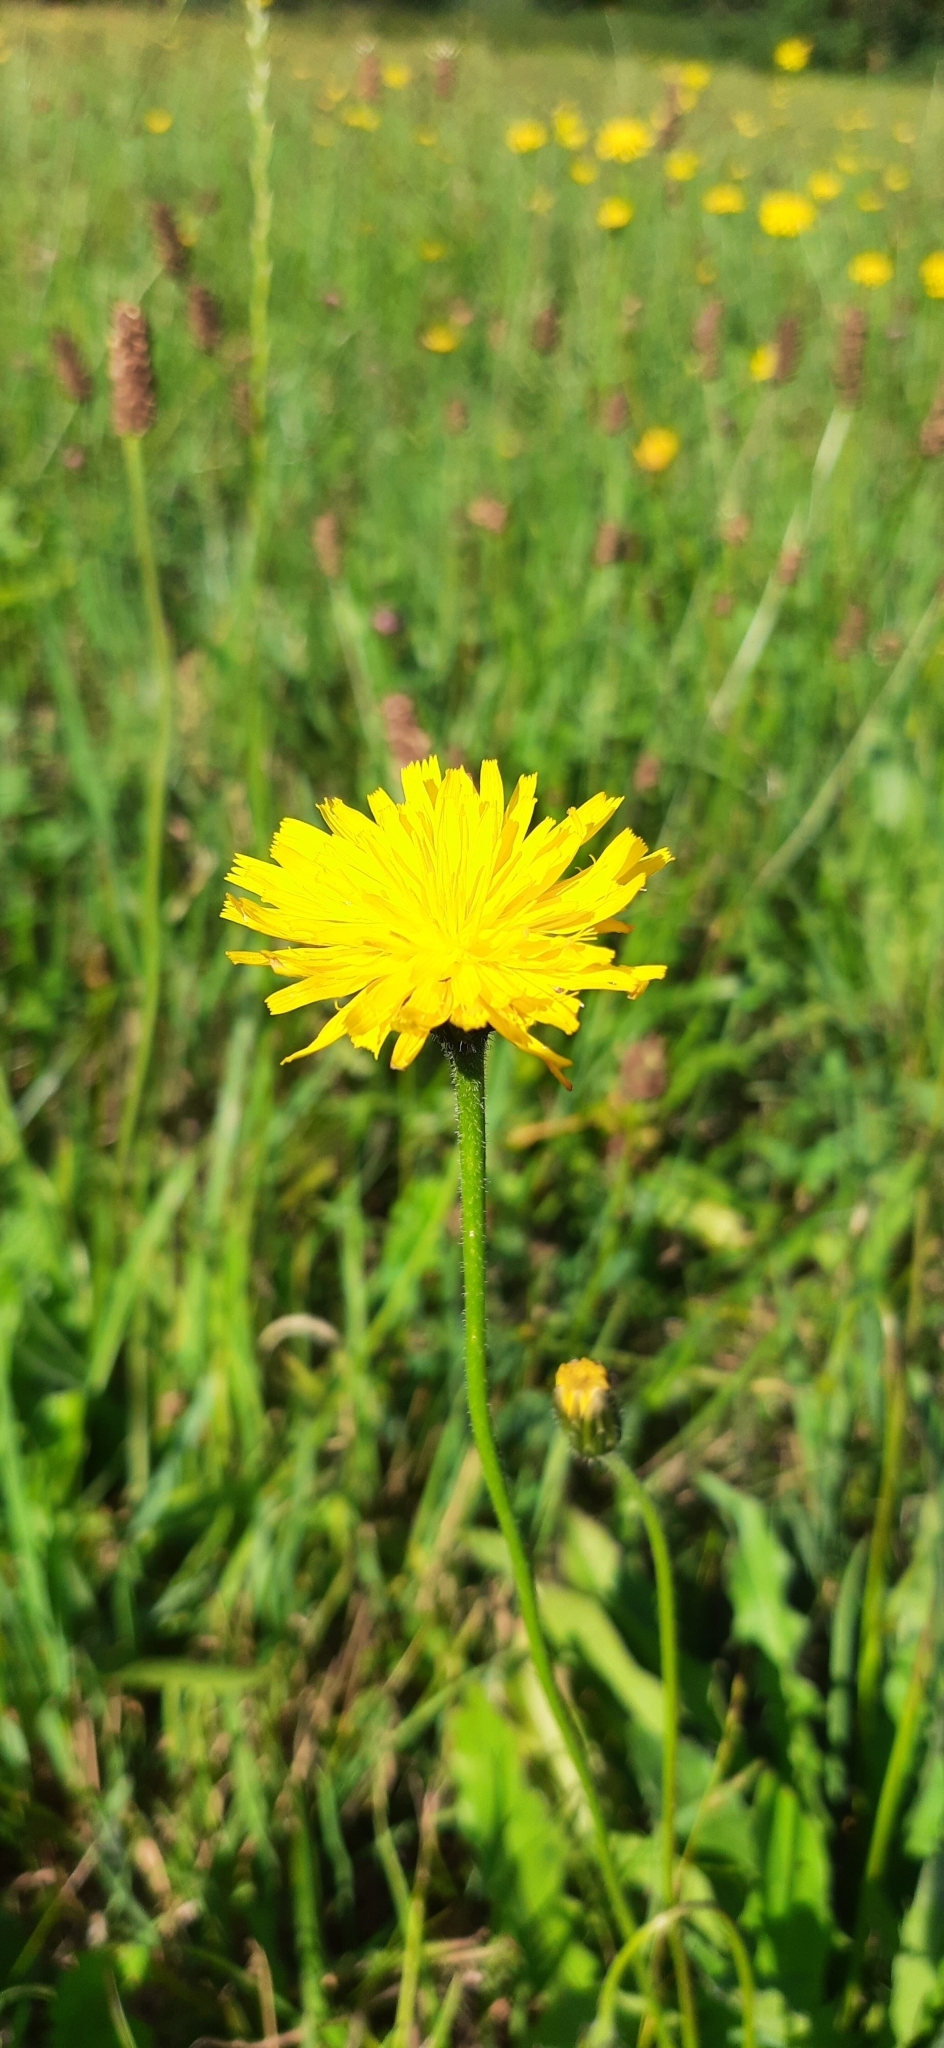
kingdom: Plantae
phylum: Tracheophyta
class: Magnoliopsida
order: Asterales
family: Asteraceae
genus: Leontodon
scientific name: Leontodon hispidus
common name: Rough hawkbit
